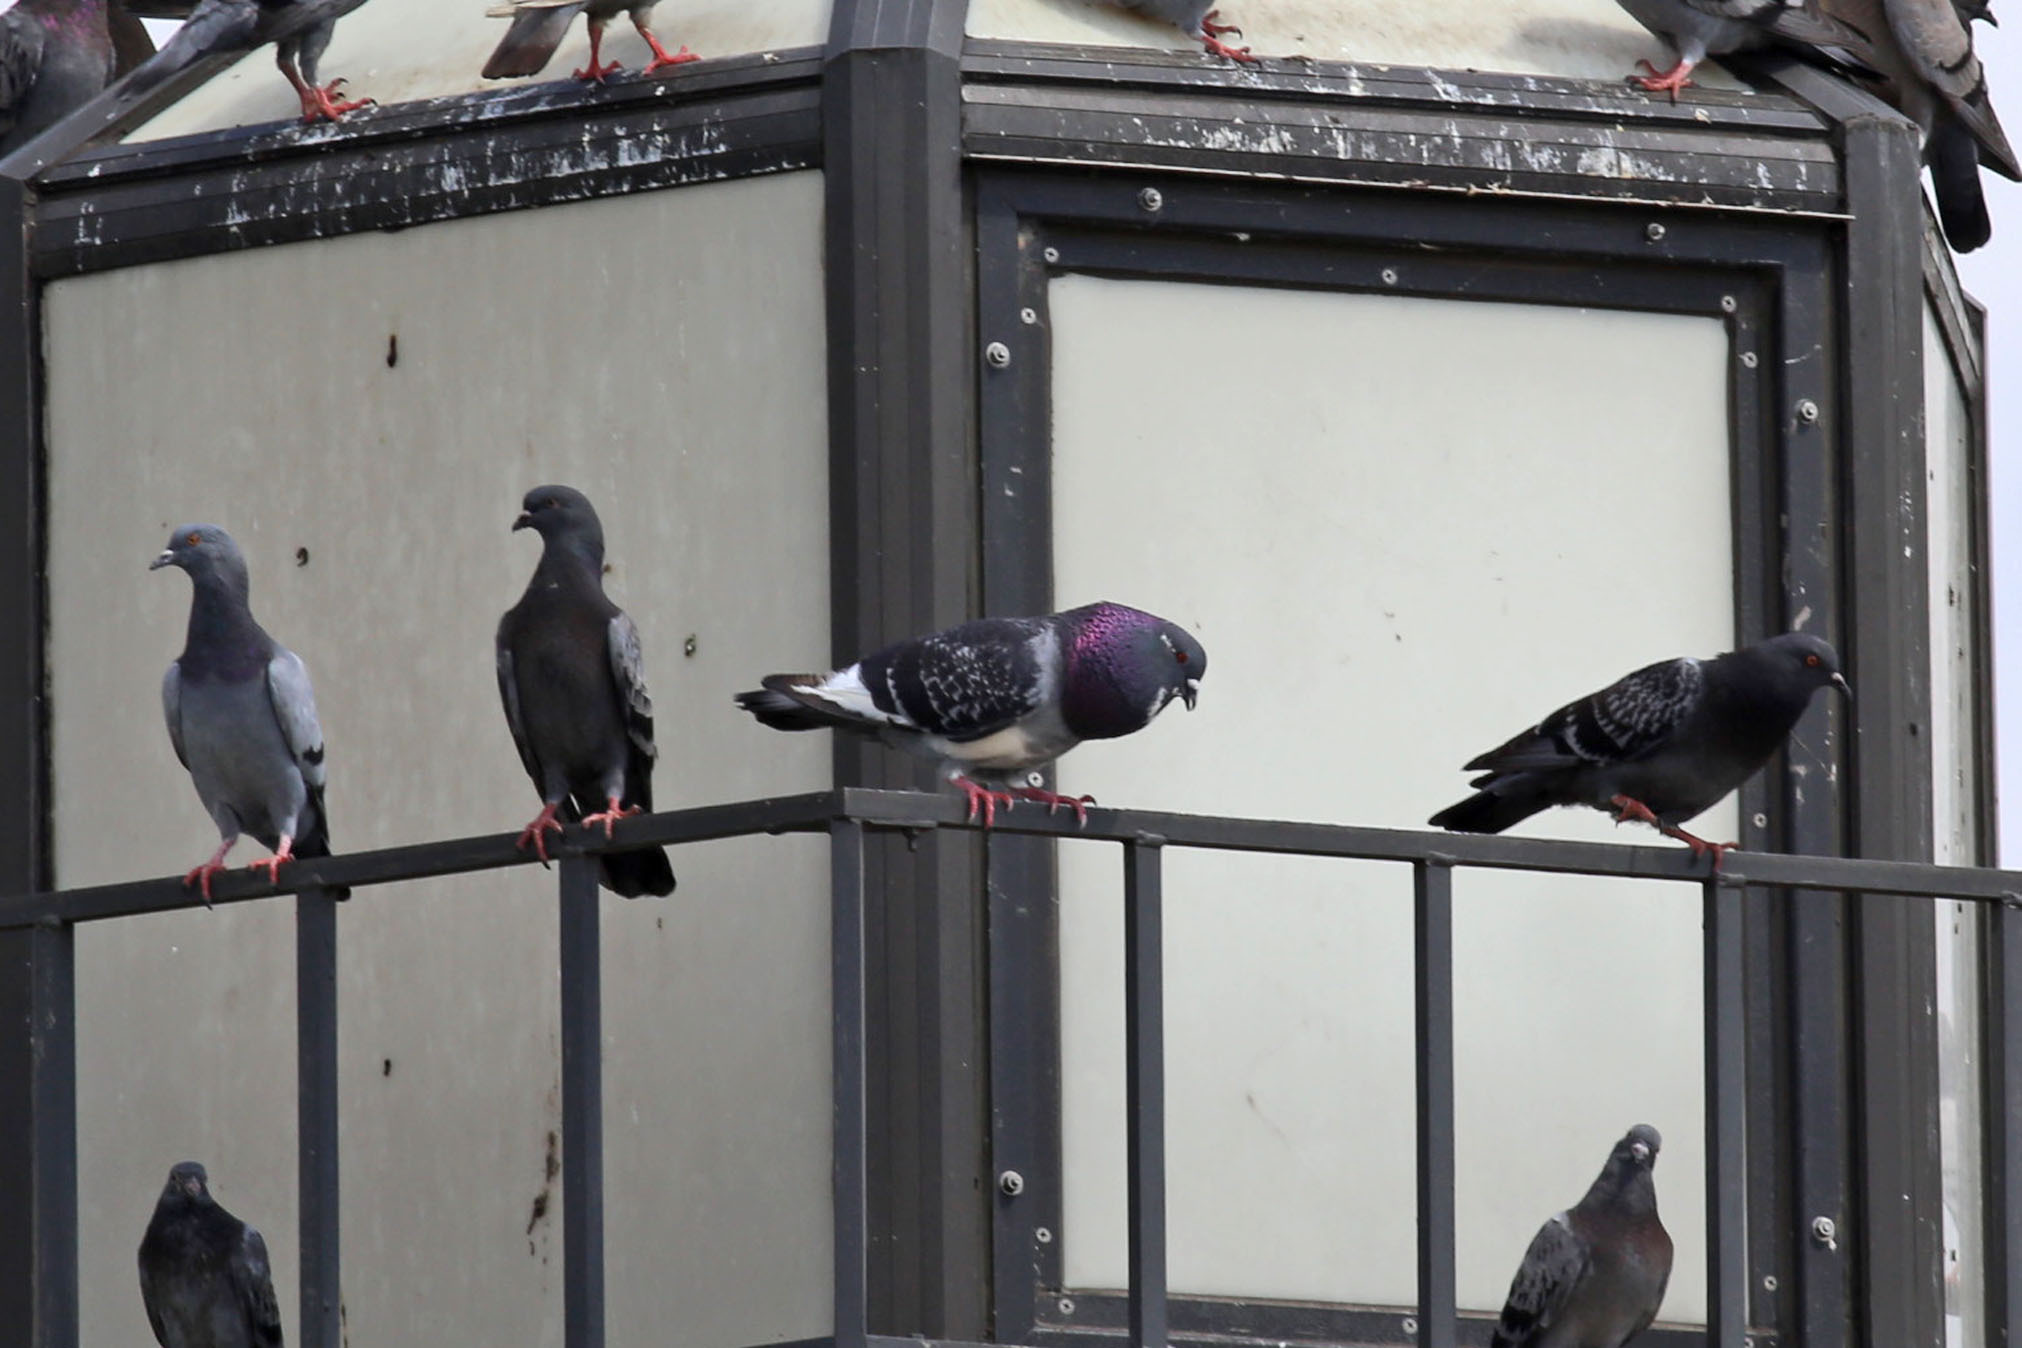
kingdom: Animalia
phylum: Chordata
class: Aves
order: Columbiformes
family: Columbidae
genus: Columba
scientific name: Columba livia
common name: Rock pigeon
